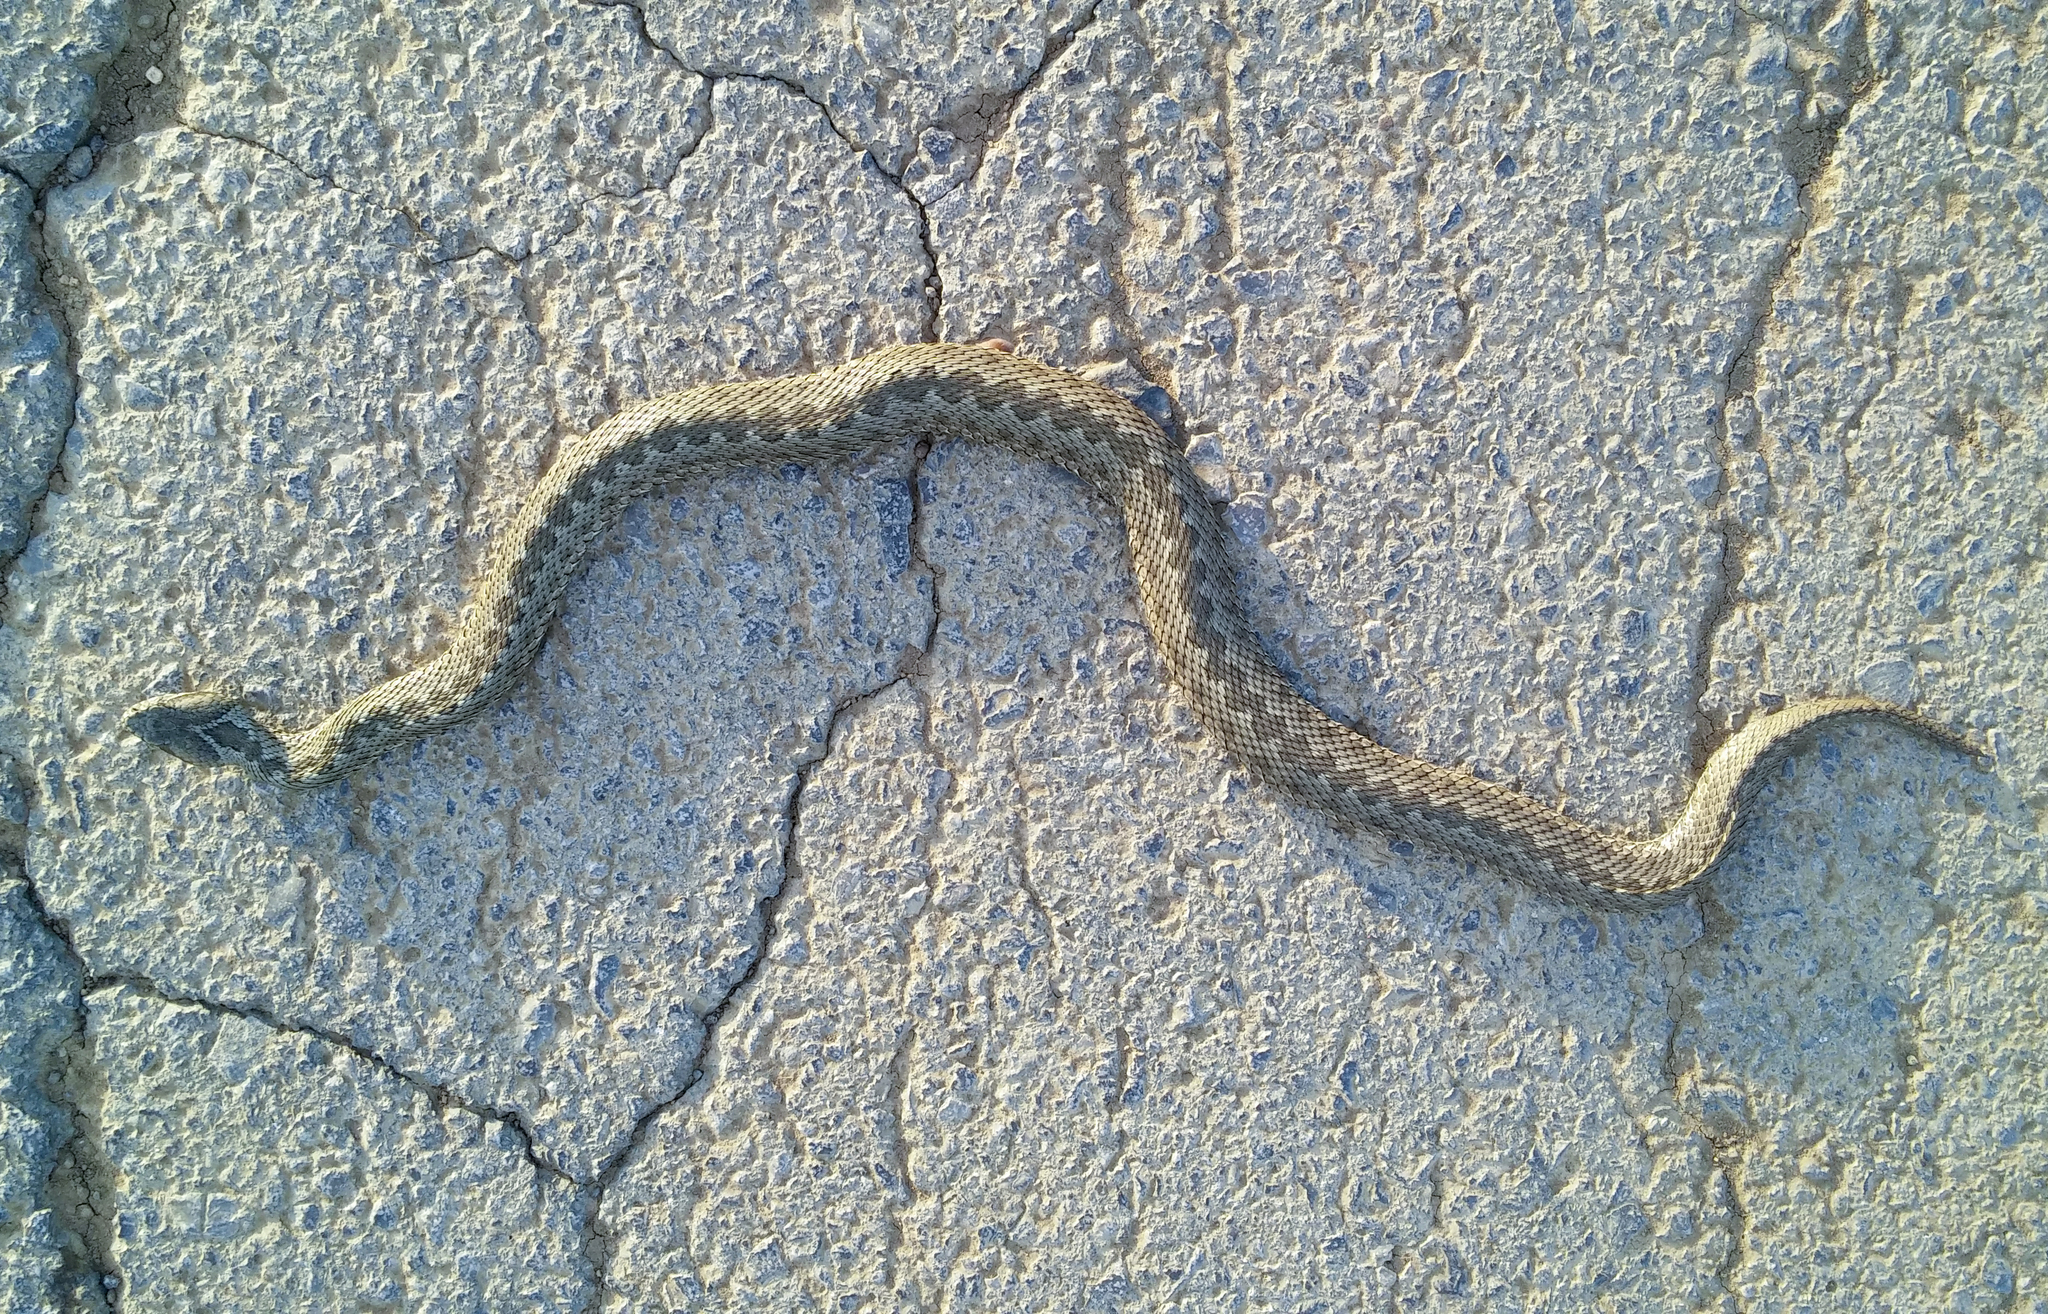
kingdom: Animalia
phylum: Chordata
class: Squamata
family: Viperidae
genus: Vipera
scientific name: Vipera renardi
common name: Eastern steppe viper
